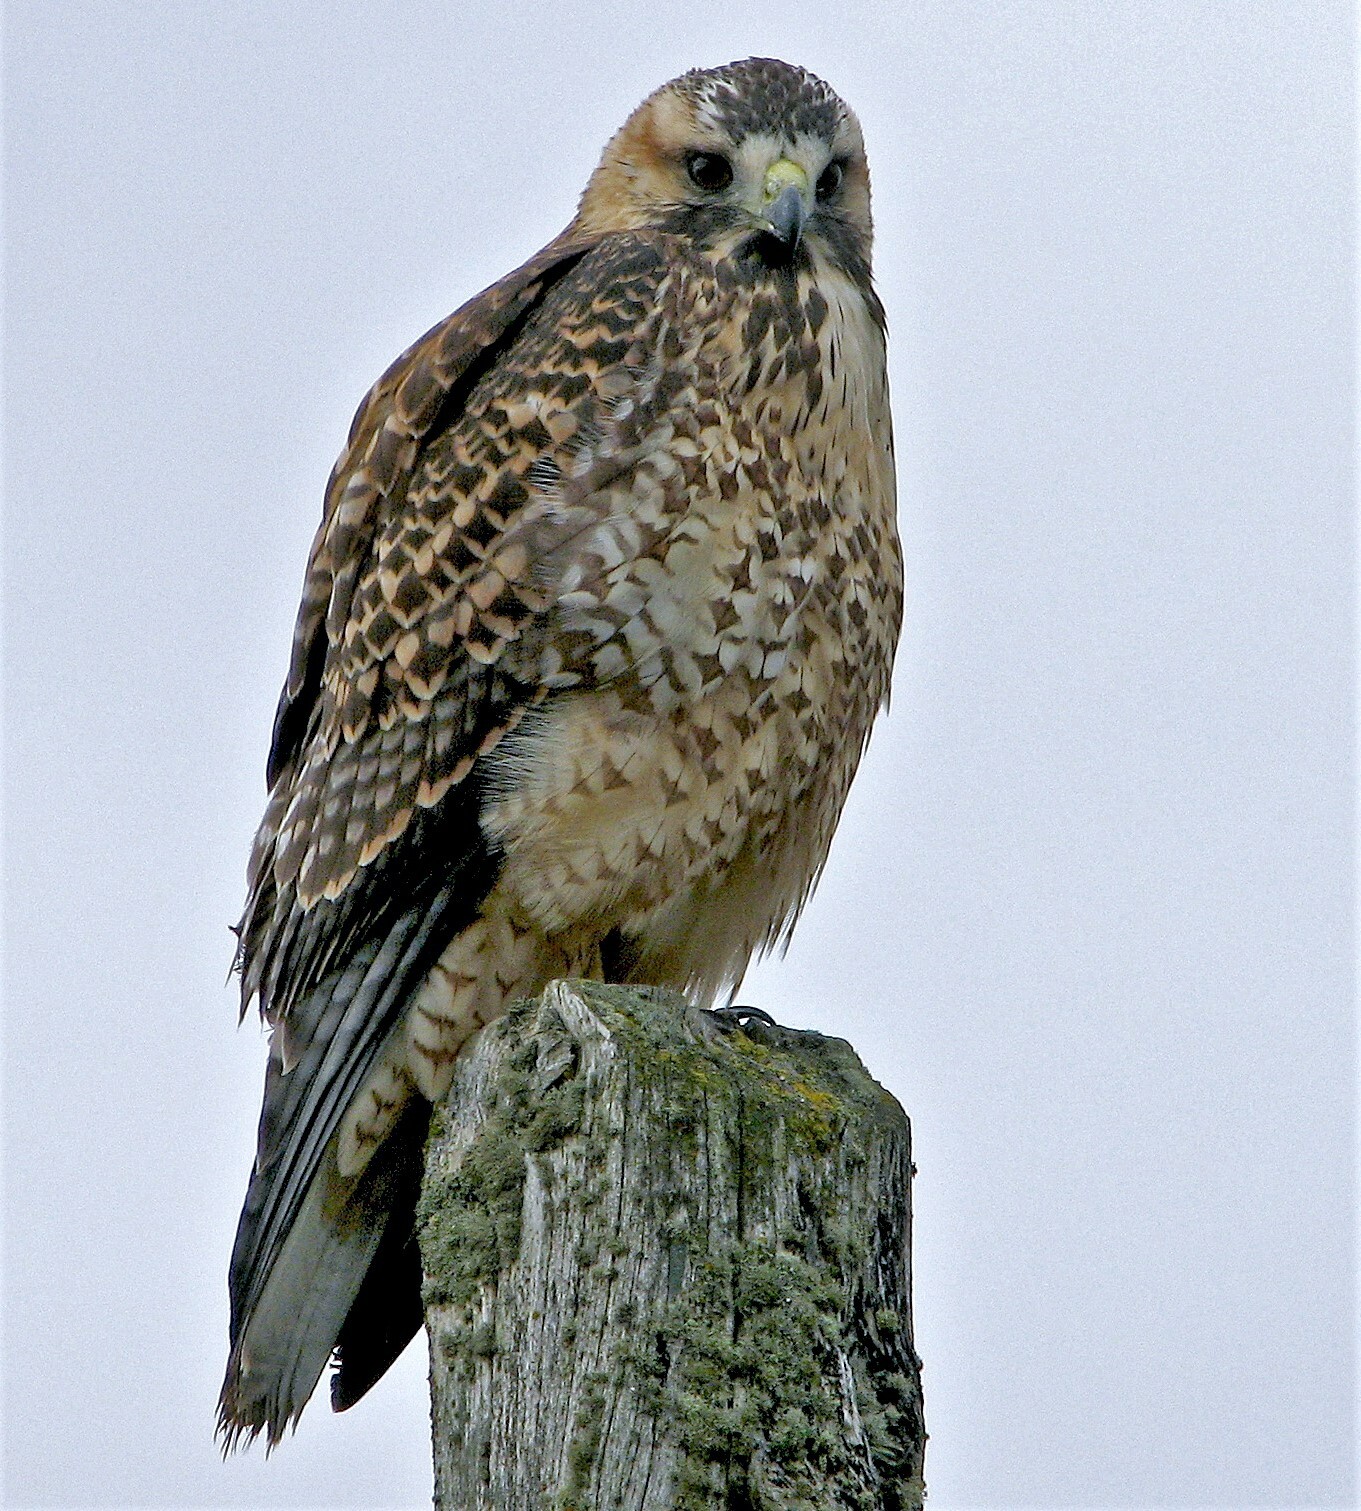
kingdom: Animalia
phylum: Chordata
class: Aves
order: Accipitriformes
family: Accipitridae
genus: Buteo
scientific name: Buteo polyosoma
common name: Variable hawk
